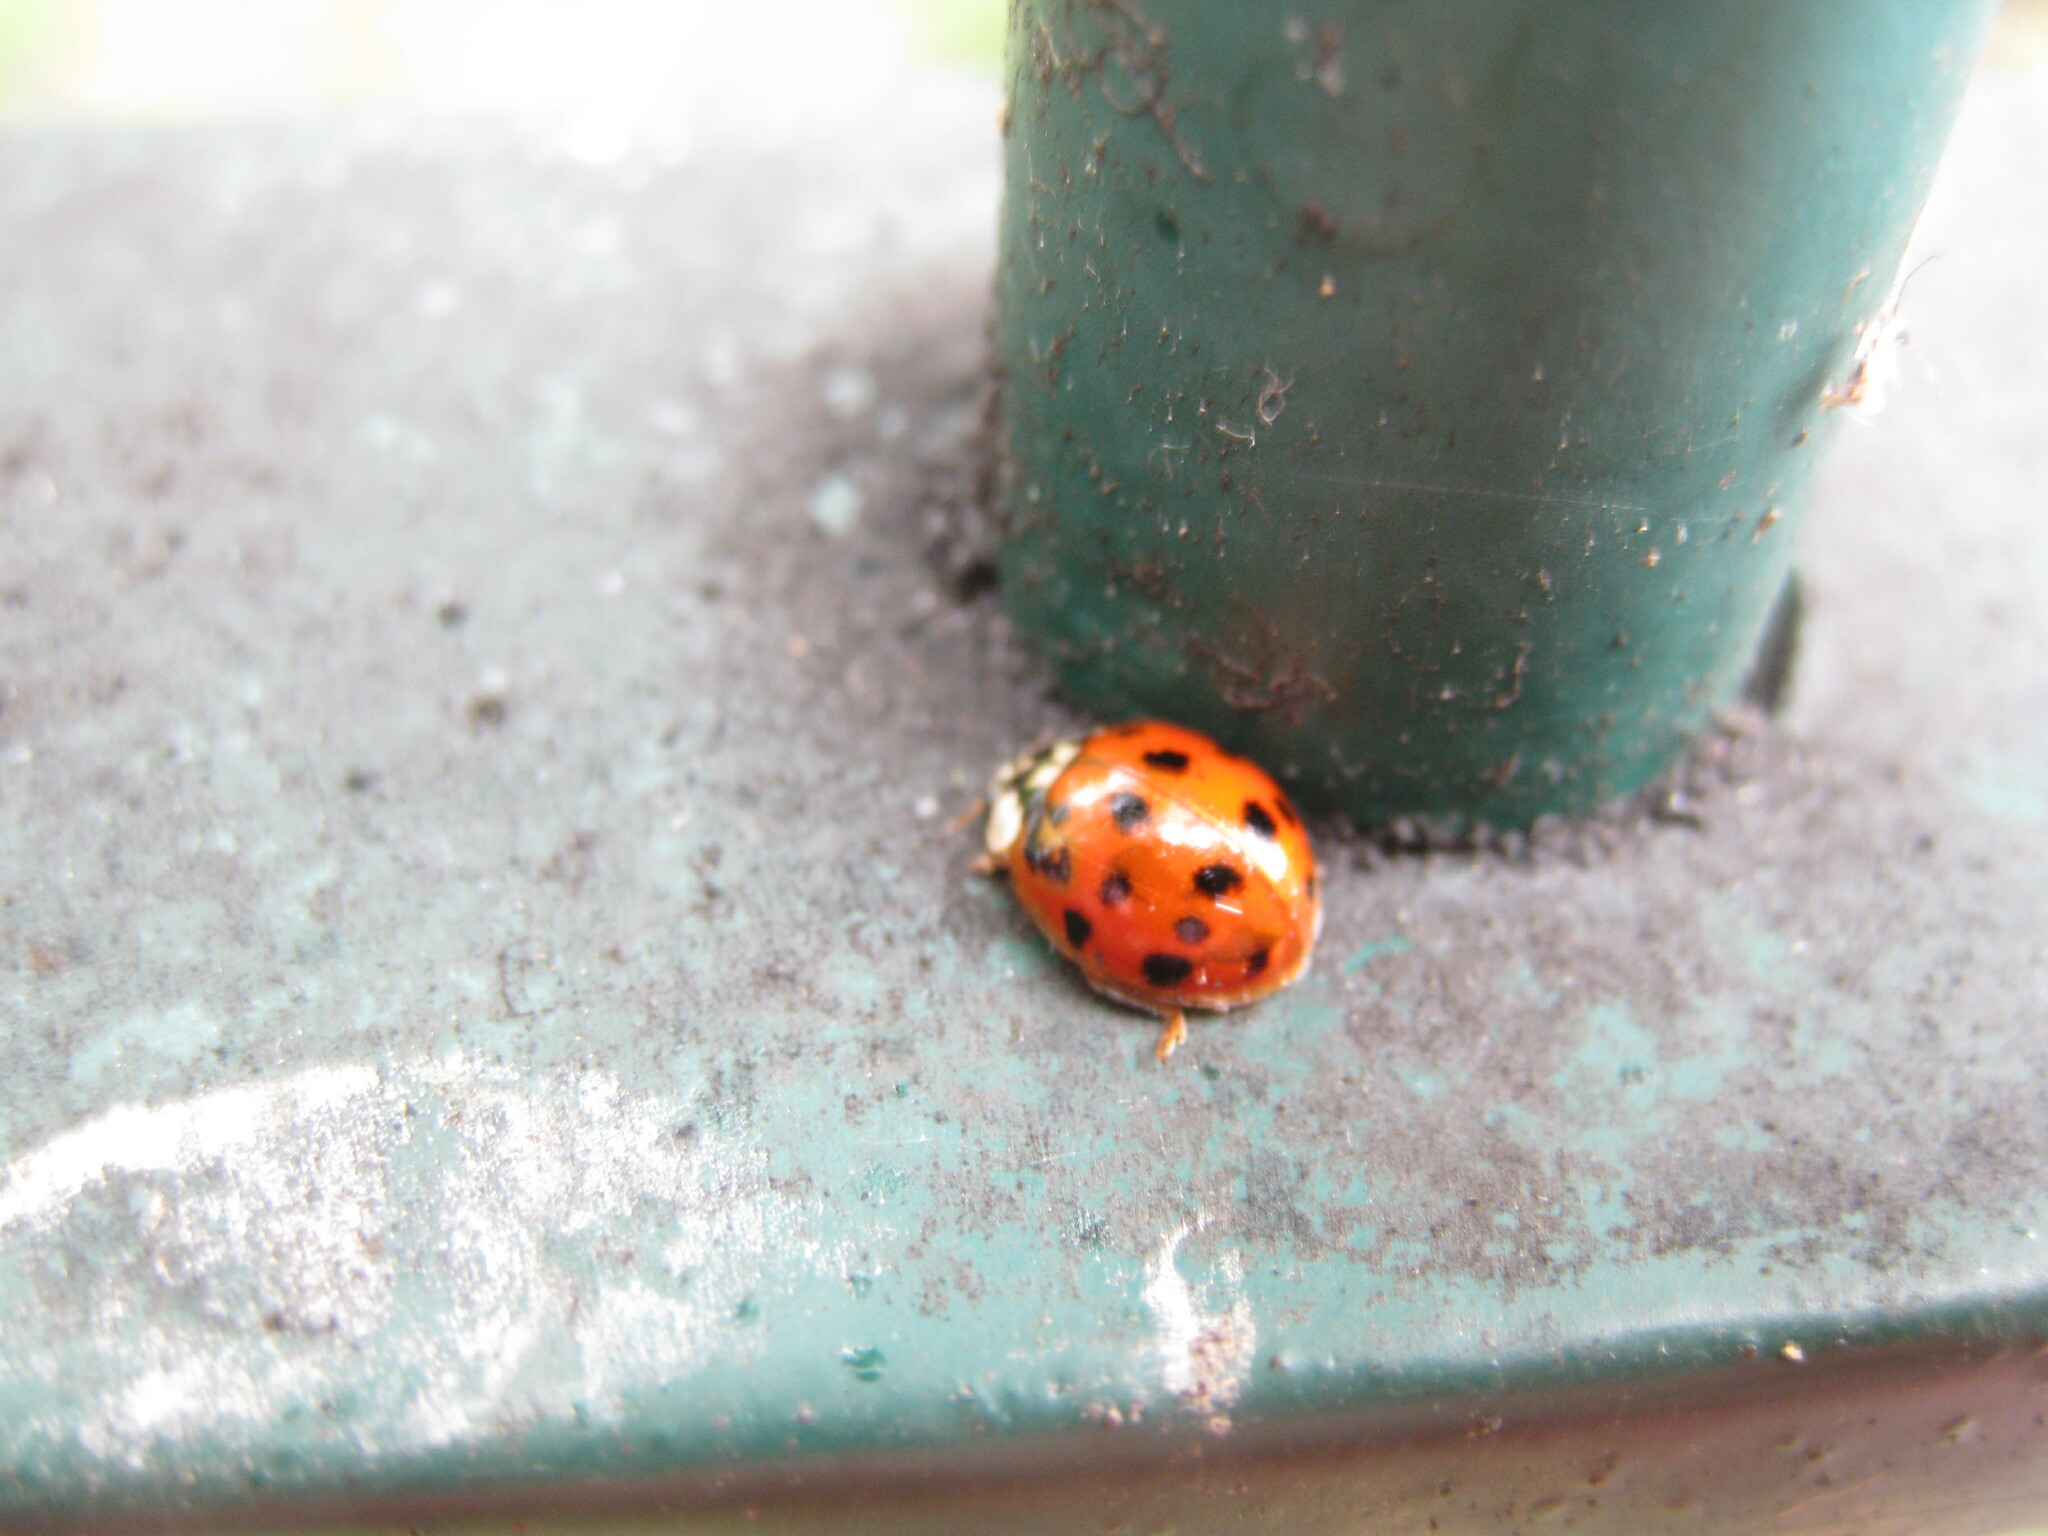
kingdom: Animalia
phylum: Arthropoda
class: Insecta
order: Coleoptera
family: Coccinellidae
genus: Harmonia
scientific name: Harmonia axyridis
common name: Harlequin ladybird
